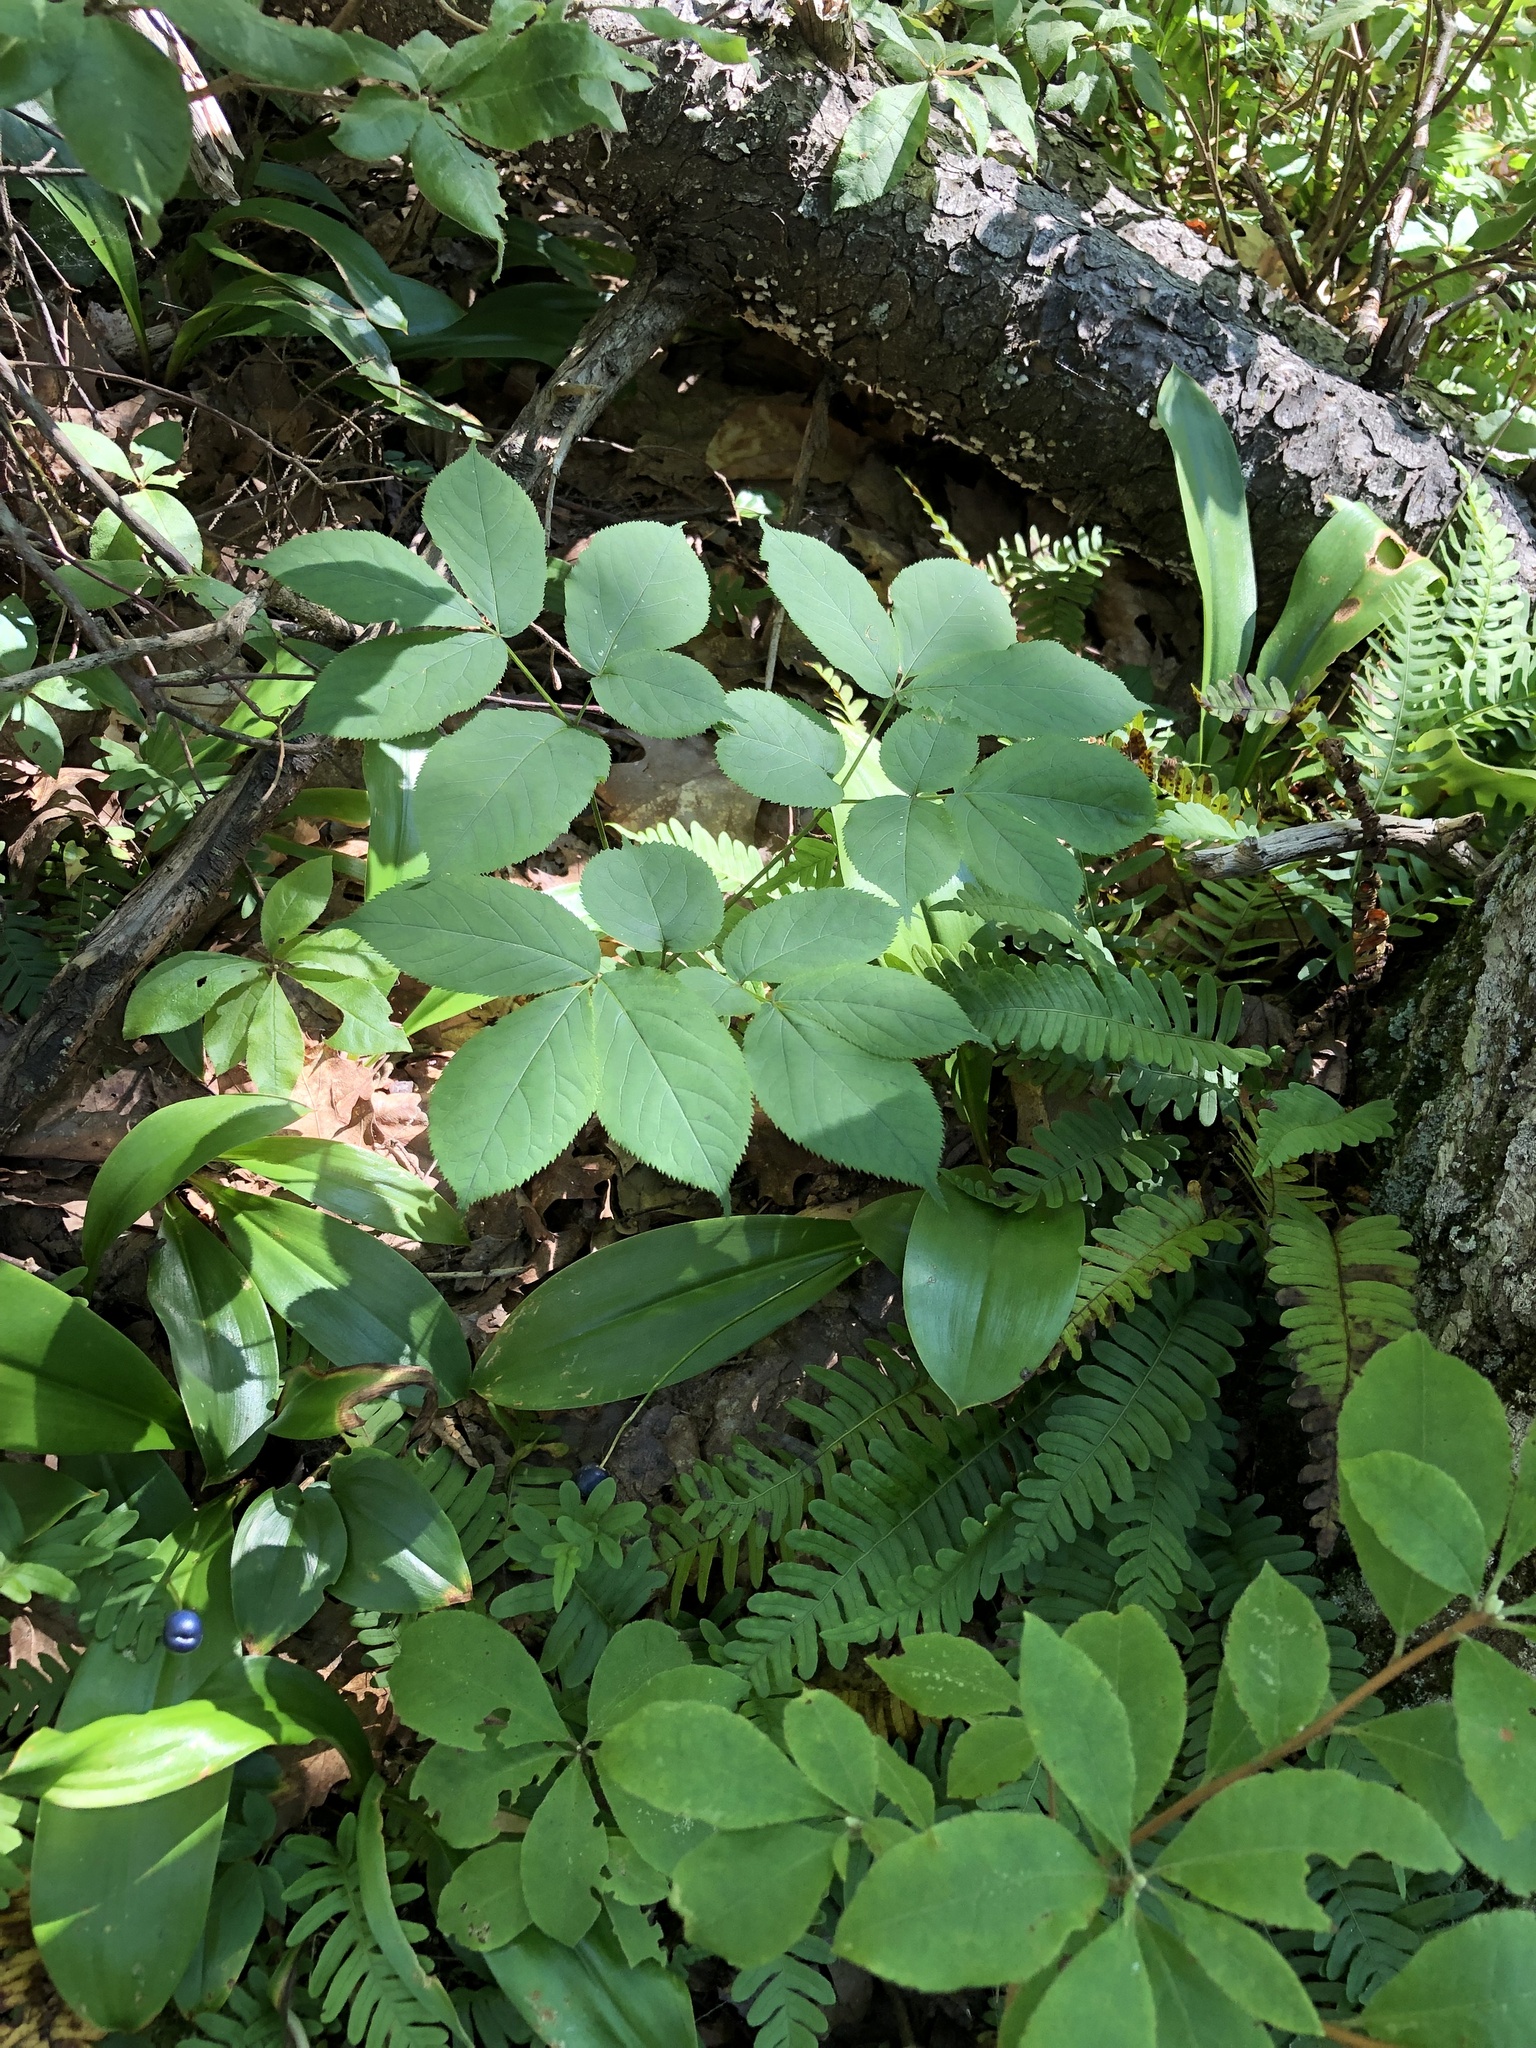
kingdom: Plantae
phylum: Tracheophyta
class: Magnoliopsida
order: Apiales
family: Araliaceae
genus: Aralia
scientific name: Aralia nudicaulis
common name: Wild sarsaparilla
